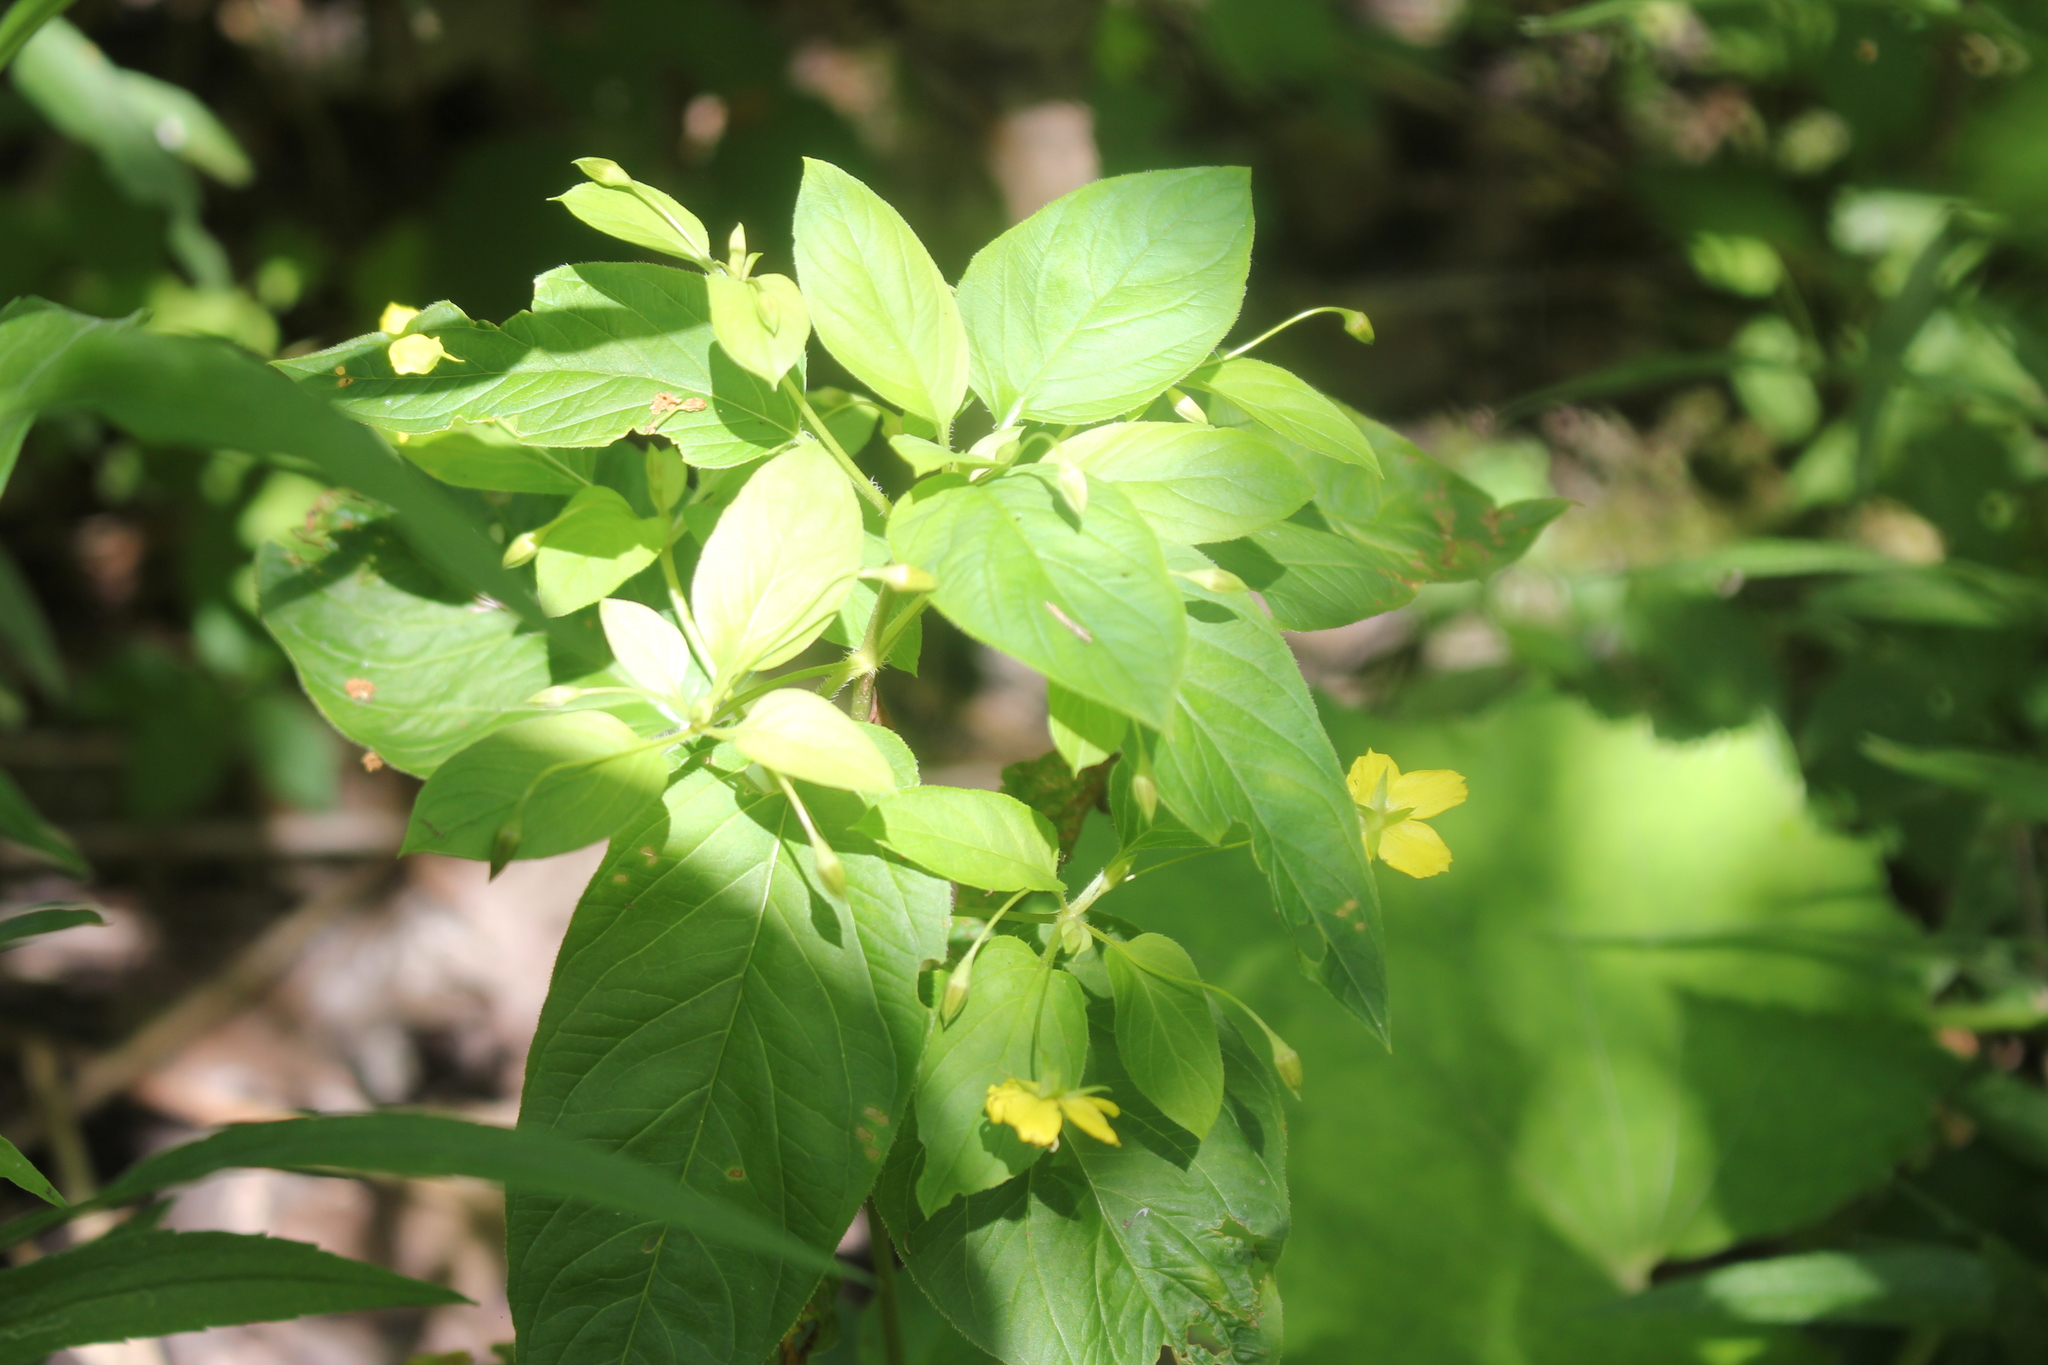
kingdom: Plantae
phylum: Tracheophyta
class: Magnoliopsida
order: Ericales
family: Primulaceae
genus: Lysimachia
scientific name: Lysimachia ciliata
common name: Fringed loosestrife
